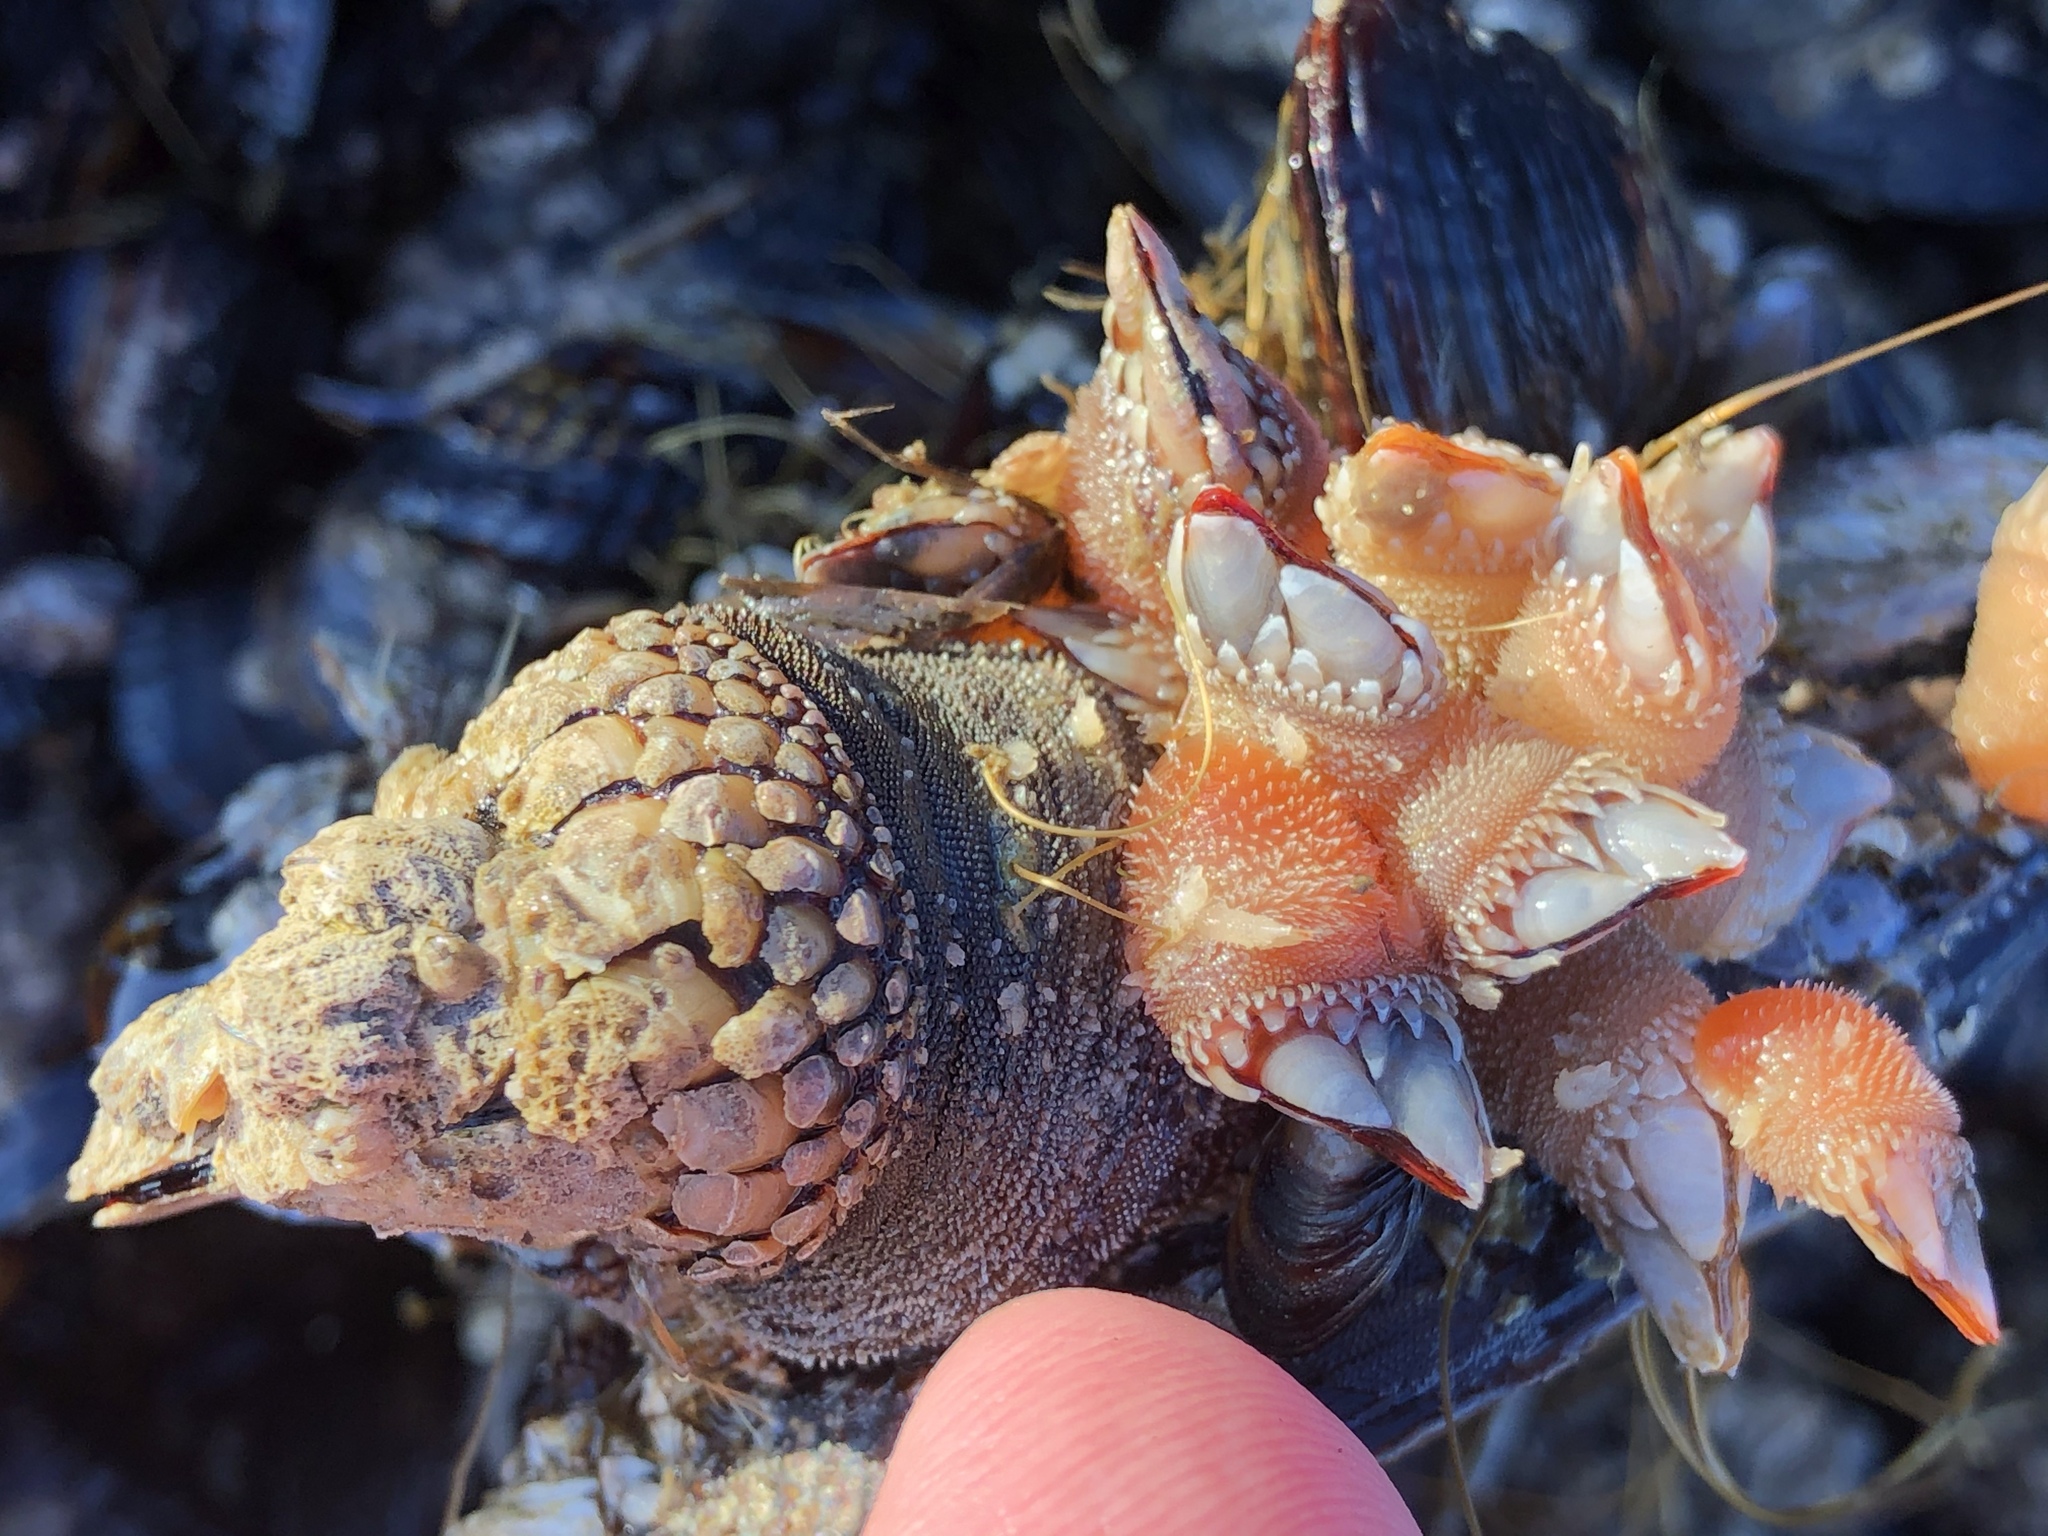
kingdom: Animalia
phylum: Arthropoda
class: Maxillopoda
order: Pedunculata
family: Pollicipedidae
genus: Pollicipes
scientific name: Pollicipes polymerus
